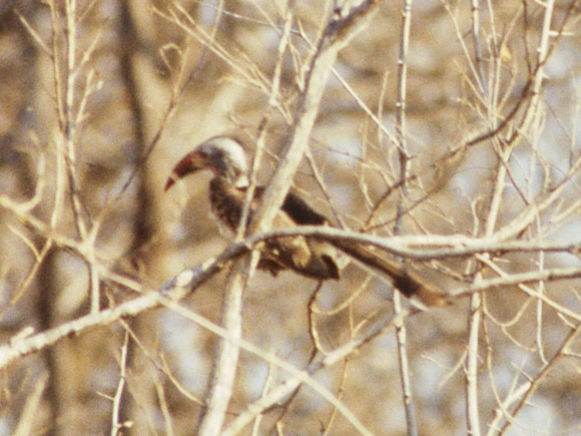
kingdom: Animalia
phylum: Chordata
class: Aves
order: Bucerotiformes
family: Bucerotidae
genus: Tockus
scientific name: Tockus rufirostris
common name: Southern red-billed hornbill
